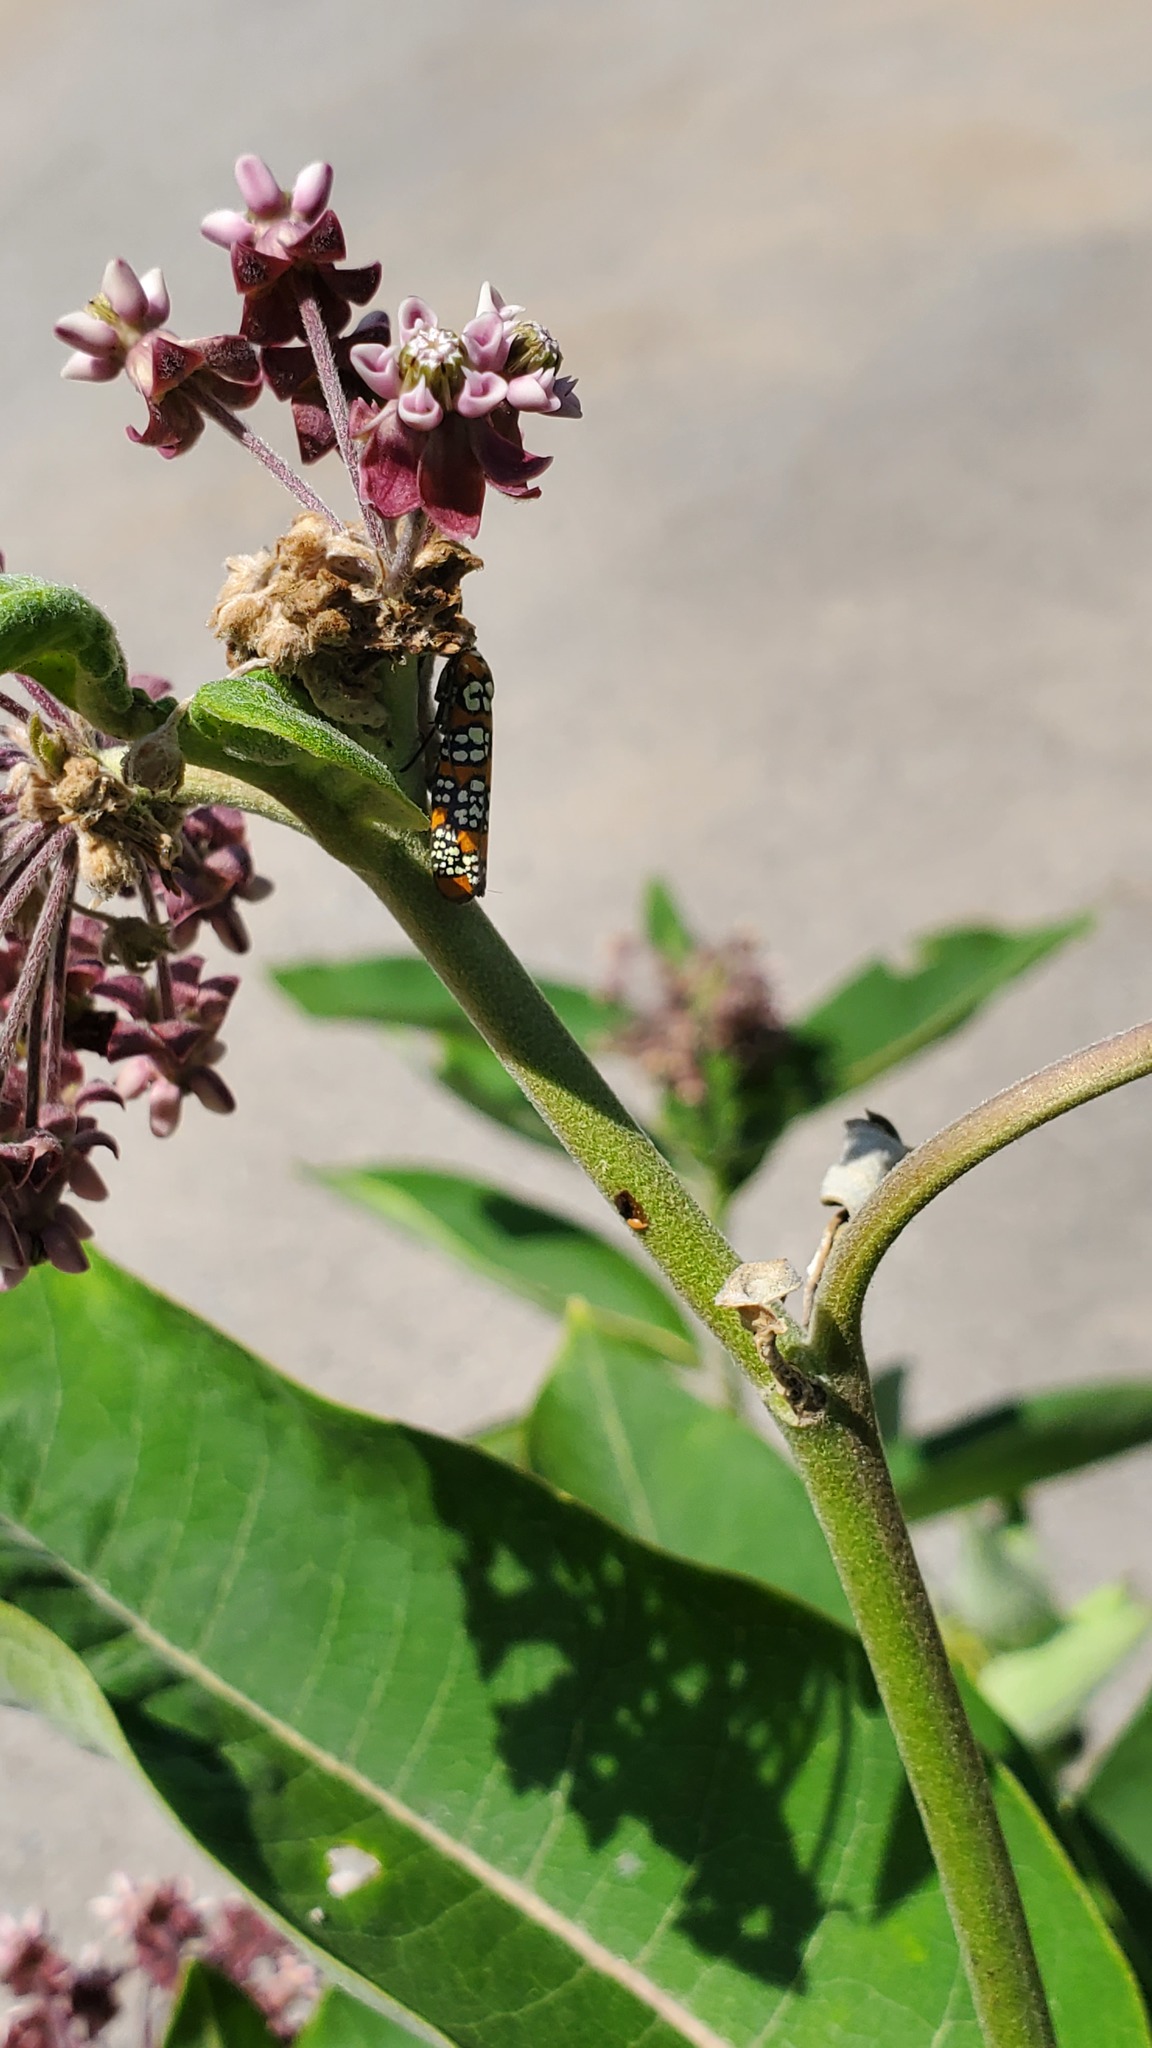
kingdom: Animalia
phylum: Arthropoda
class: Insecta
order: Lepidoptera
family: Attevidae
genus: Atteva
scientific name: Atteva punctella
